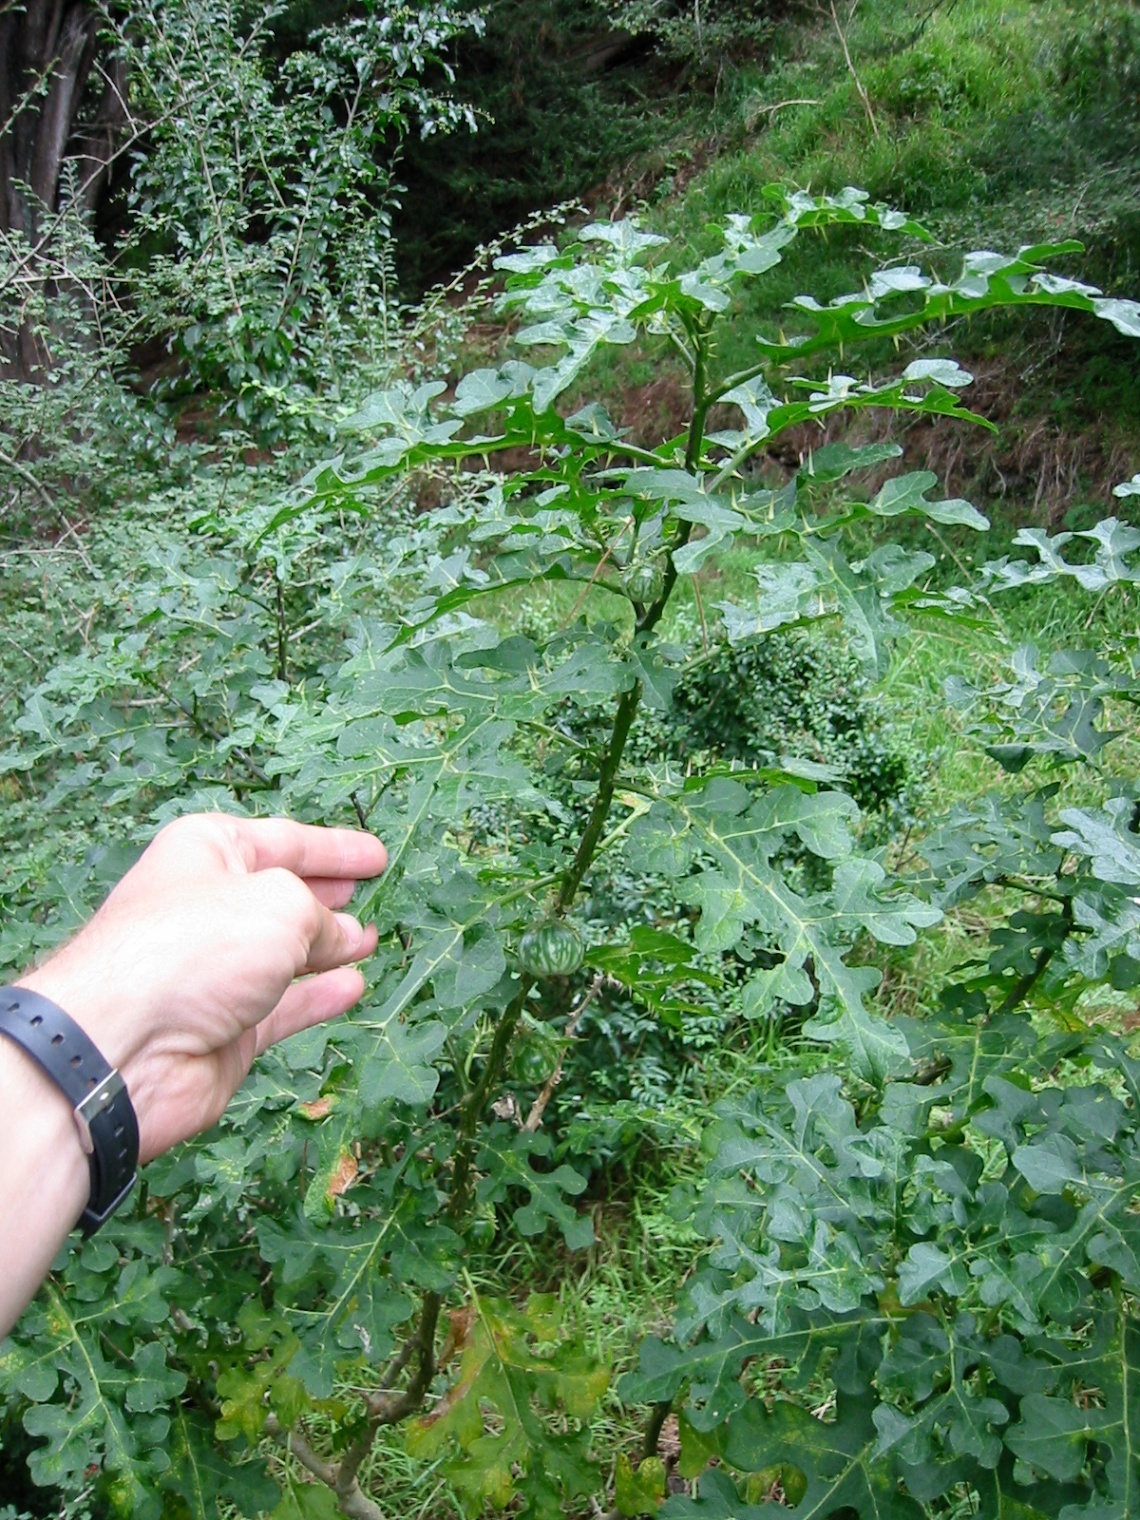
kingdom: Plantae
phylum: Tracheophyta
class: Magnoliopsida
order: Solanales
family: Solanaceae
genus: Solanum
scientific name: Solanum linnaeanum
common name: Nightshade
